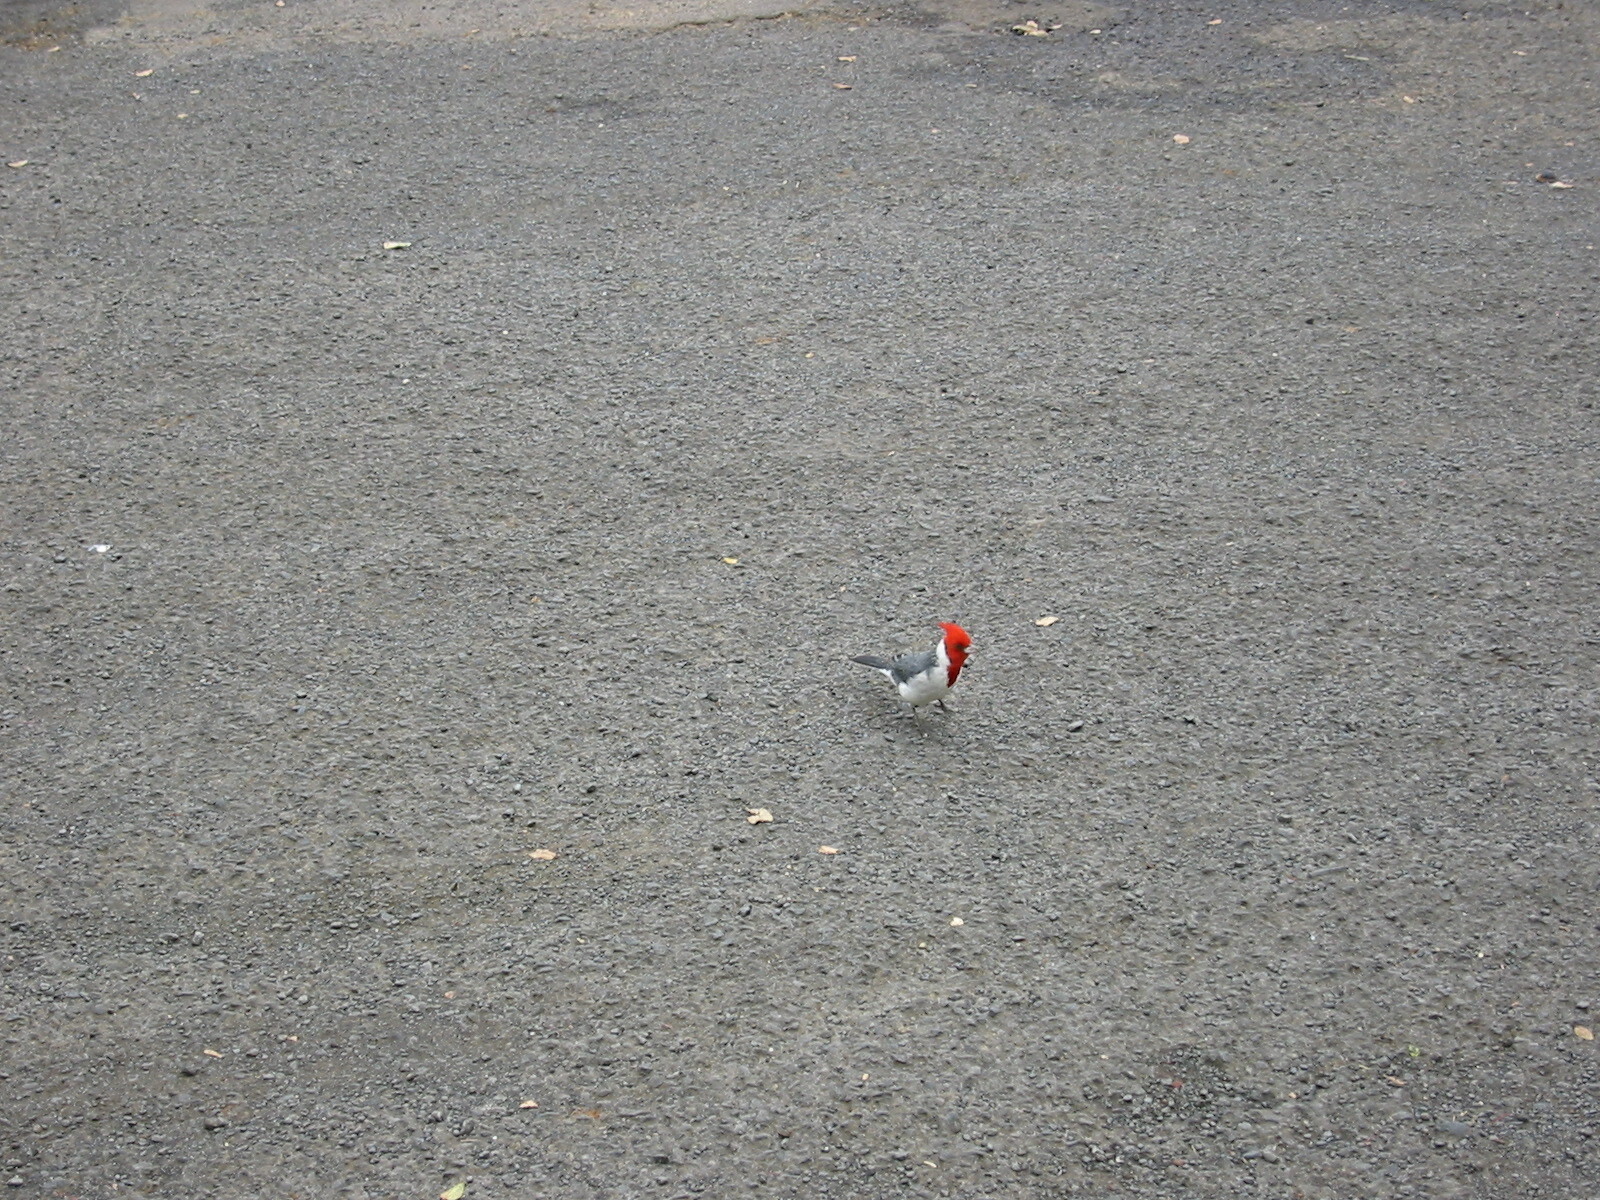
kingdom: Animalia
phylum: Chordata
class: Aves
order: Passeriformes
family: Thraupidae
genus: Paroaria
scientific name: Paroaria coronata
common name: Red-crested cardinal
